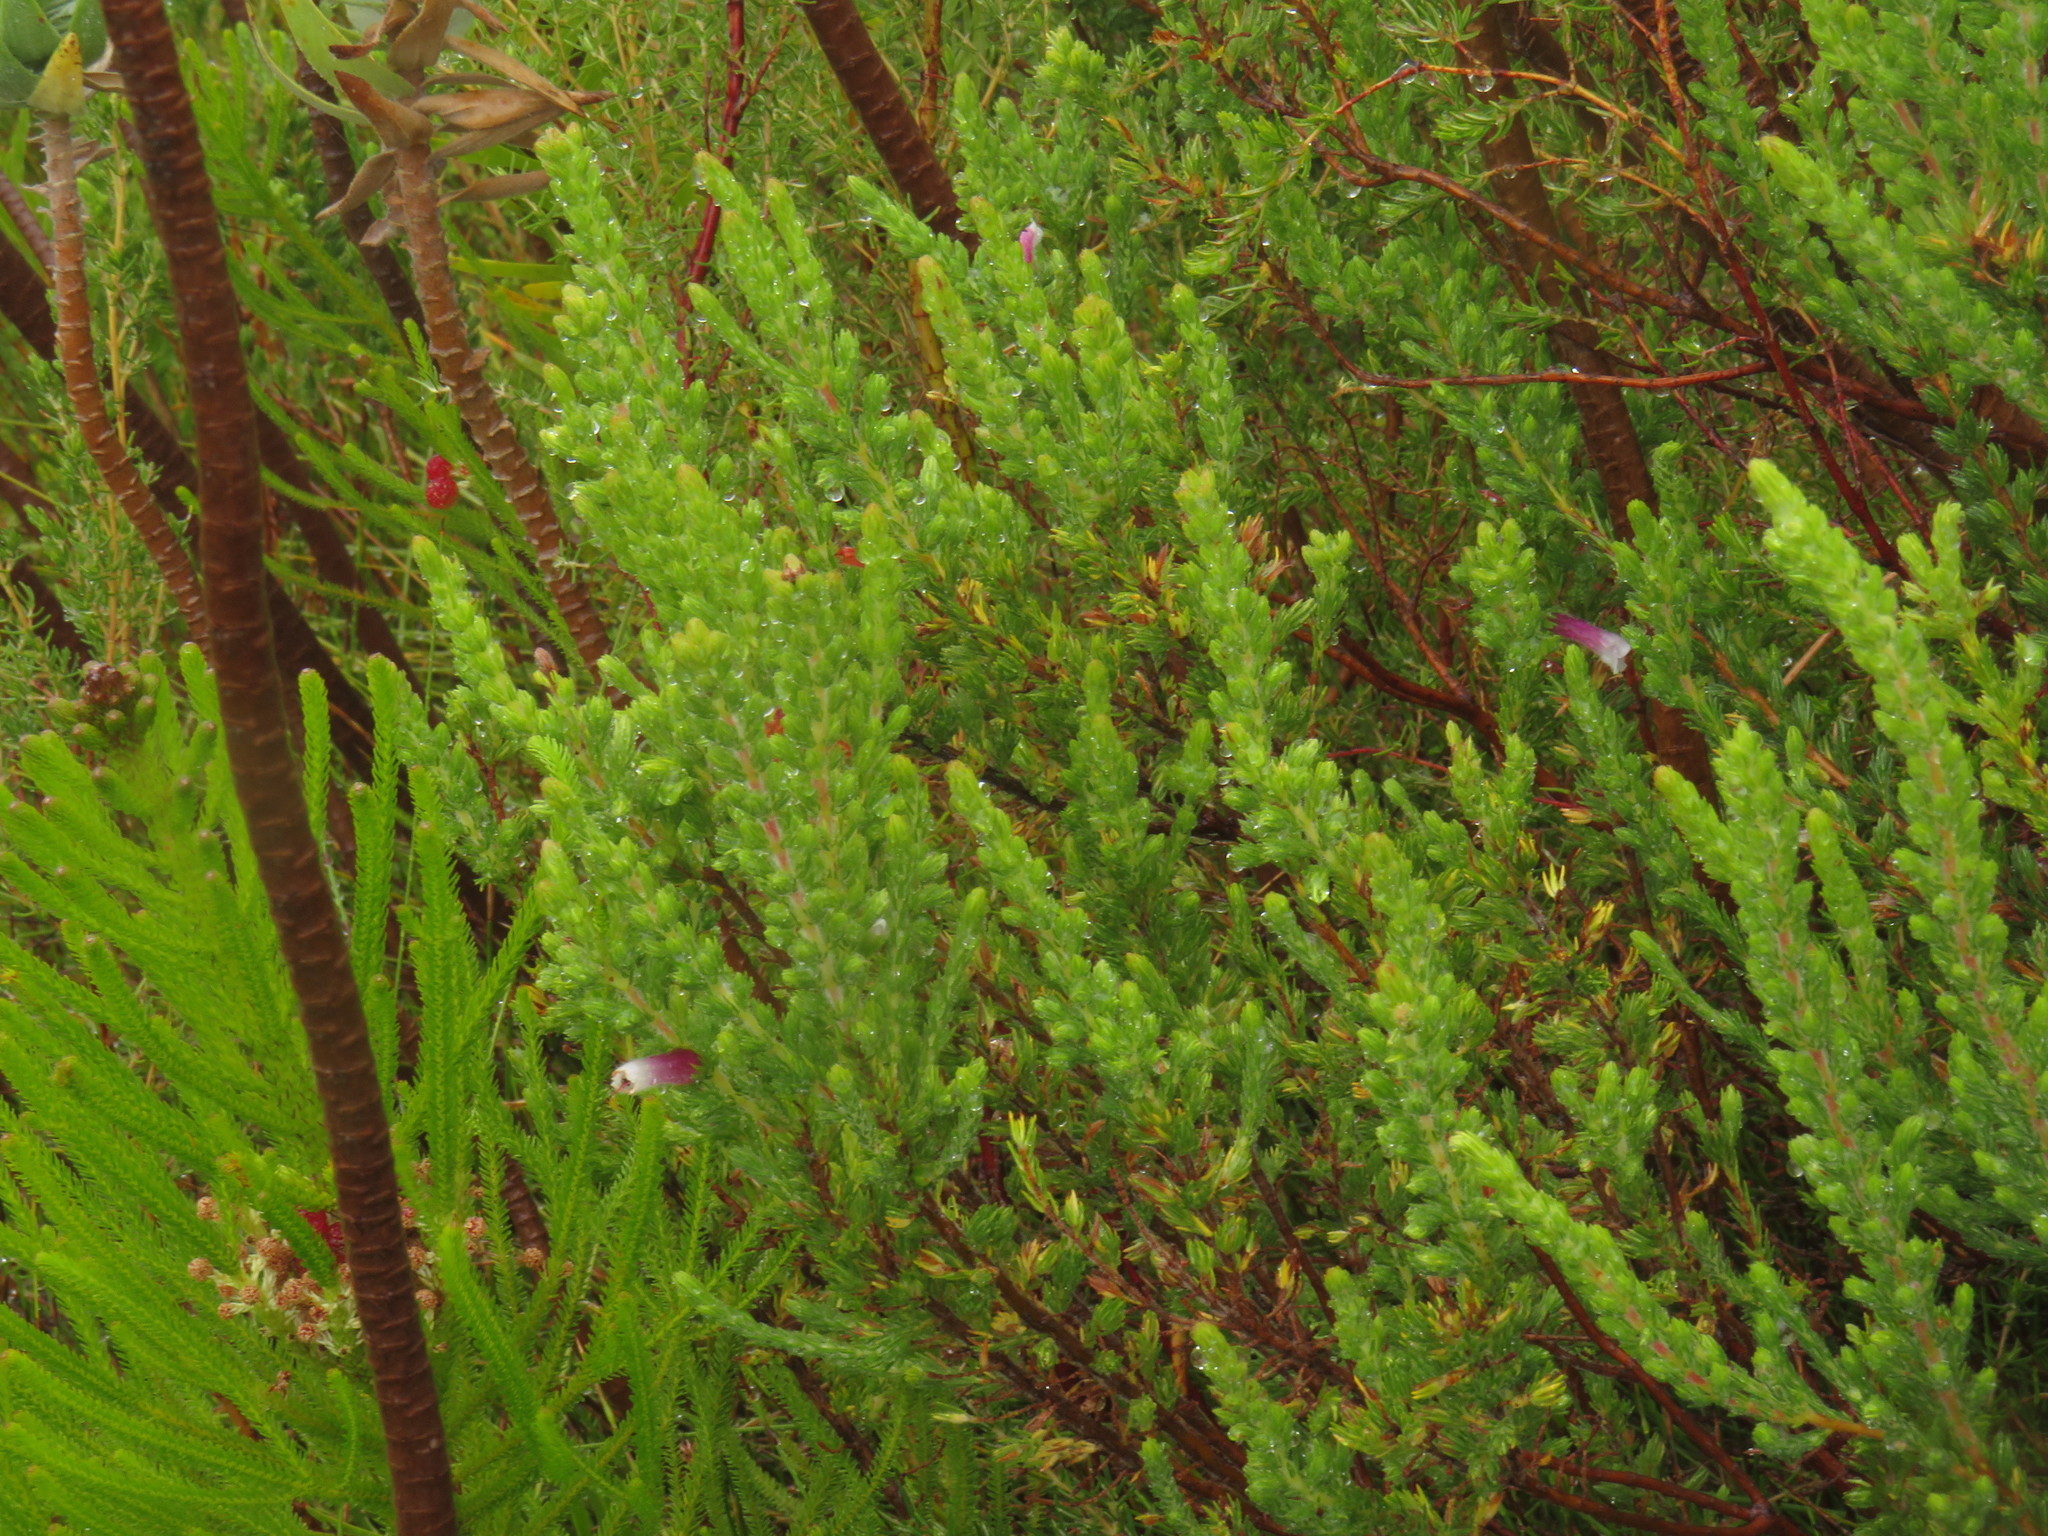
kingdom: Plantae
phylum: Tracheophyta
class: Magnoliopsida
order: Ericales
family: Ericaceae
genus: Erica
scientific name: Erica macowanii
